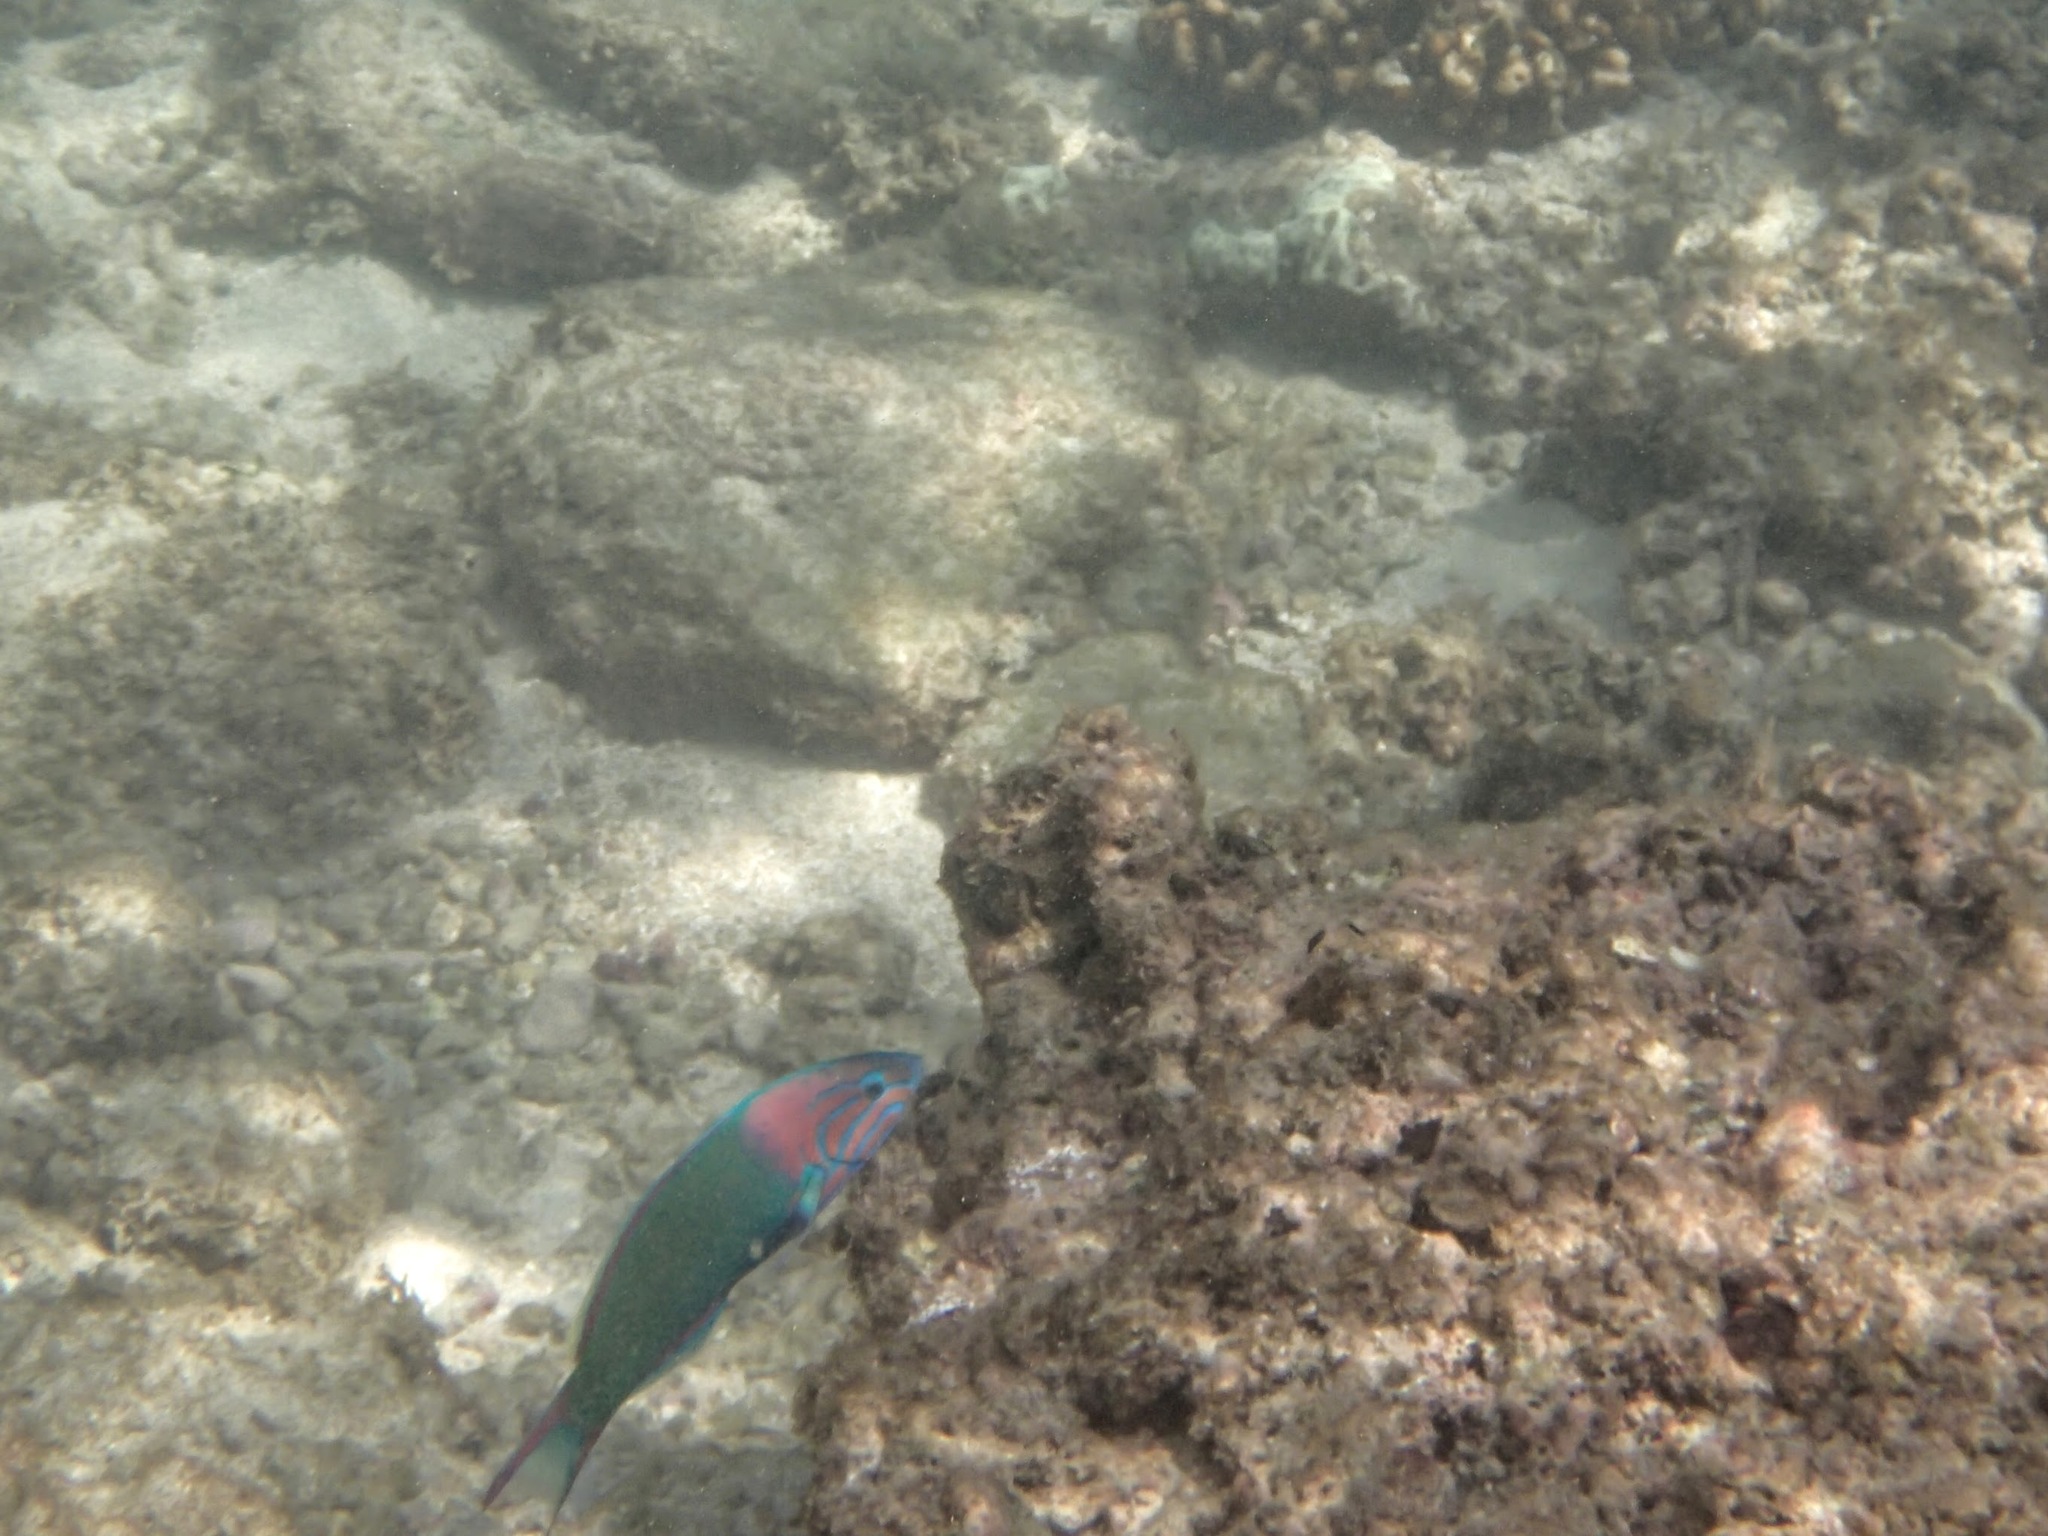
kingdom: Animalia
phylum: Chordata
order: Perciformes
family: Labridae
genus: Thalassoma
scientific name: Thalassoma grammaticum
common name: Sunset wrasse
